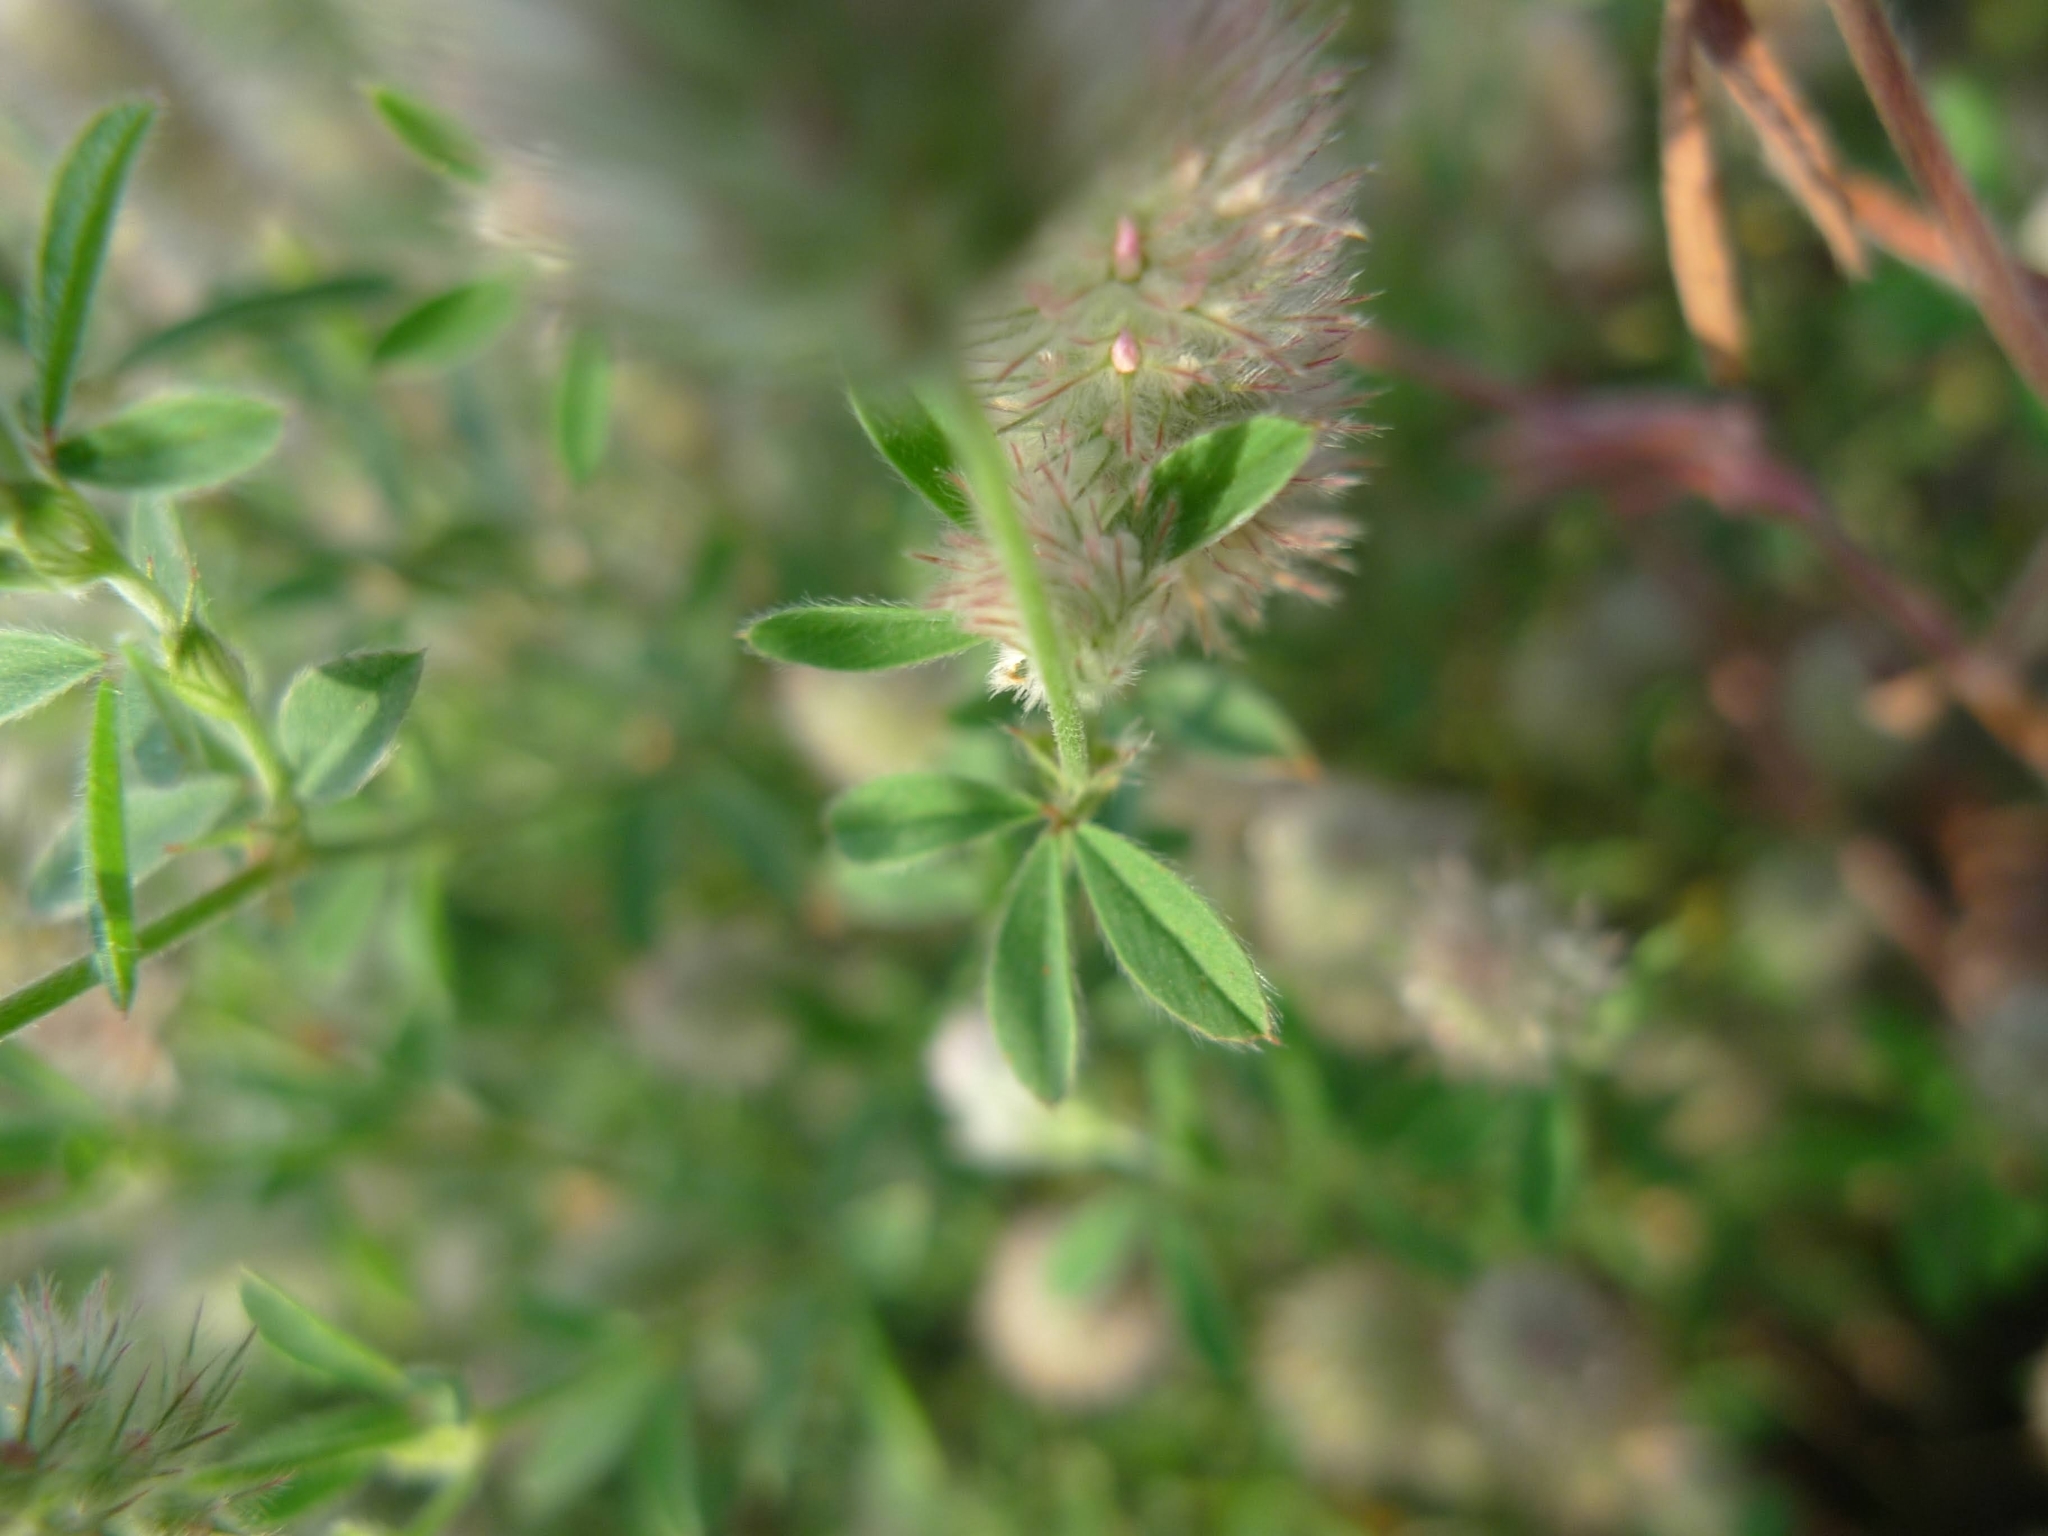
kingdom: Plantae
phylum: Tracheophyta
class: Magnoliopsida
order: Fabales
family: Fabaceae
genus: Trifolium
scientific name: Trifolium arvense
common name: Hare's-foot clover
